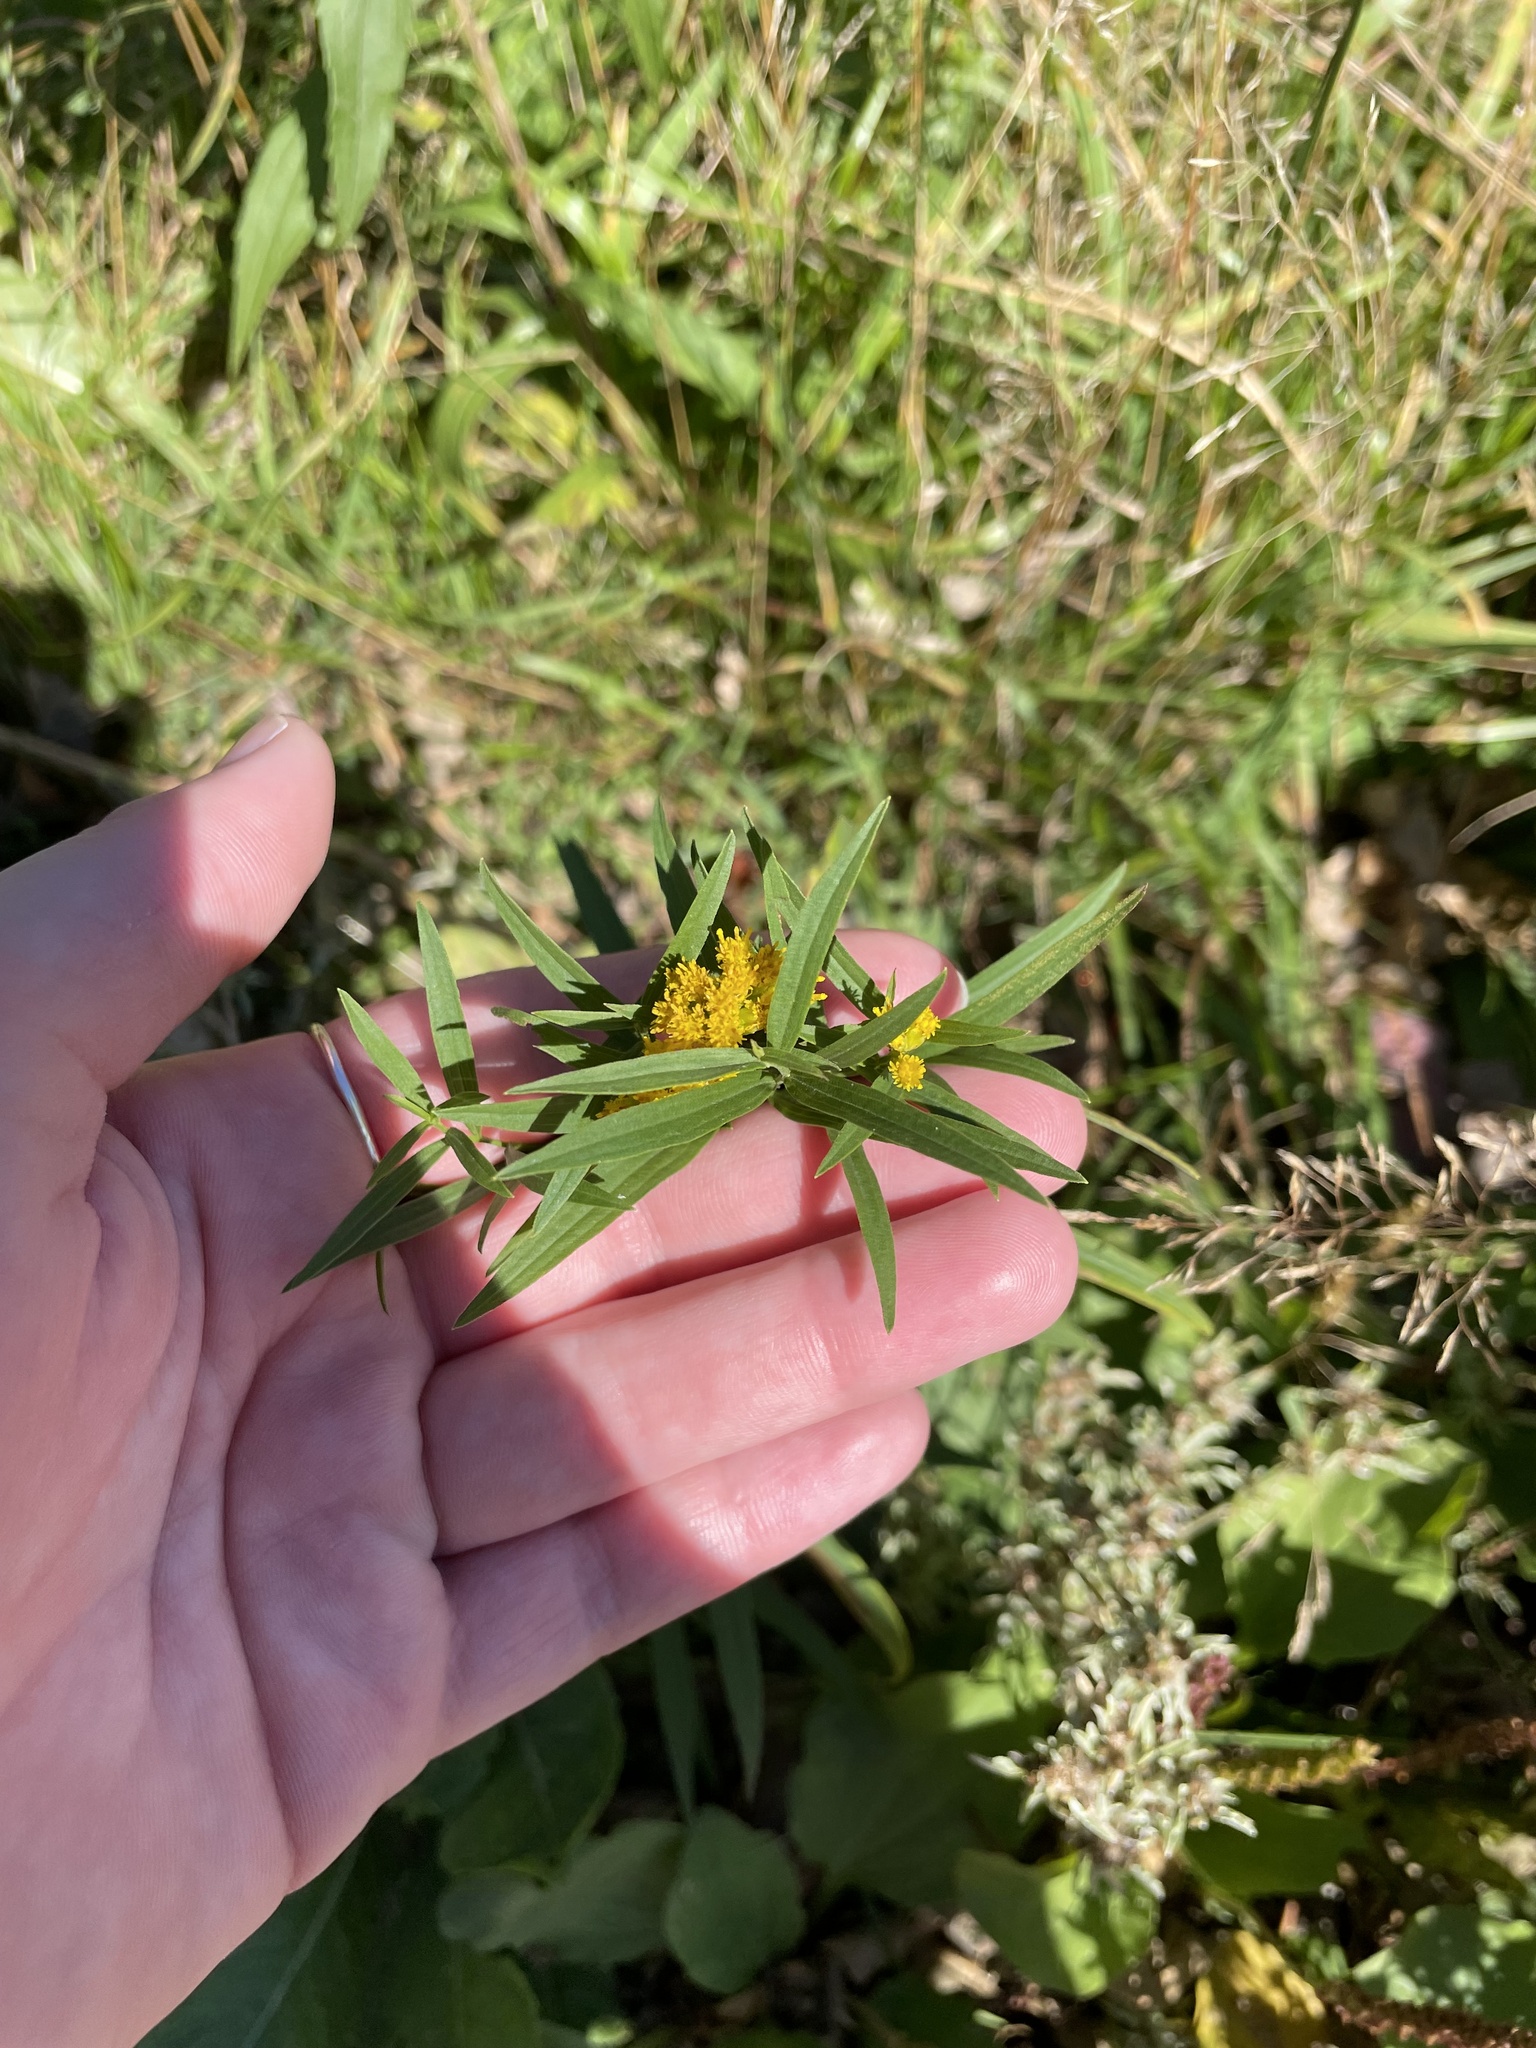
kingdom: Plantae
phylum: Tracheophyta
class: Magnoliopsida
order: Asterales
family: Asteraceae
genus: Euthamia
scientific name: Euthamia graminifolia
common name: Common goldentop
